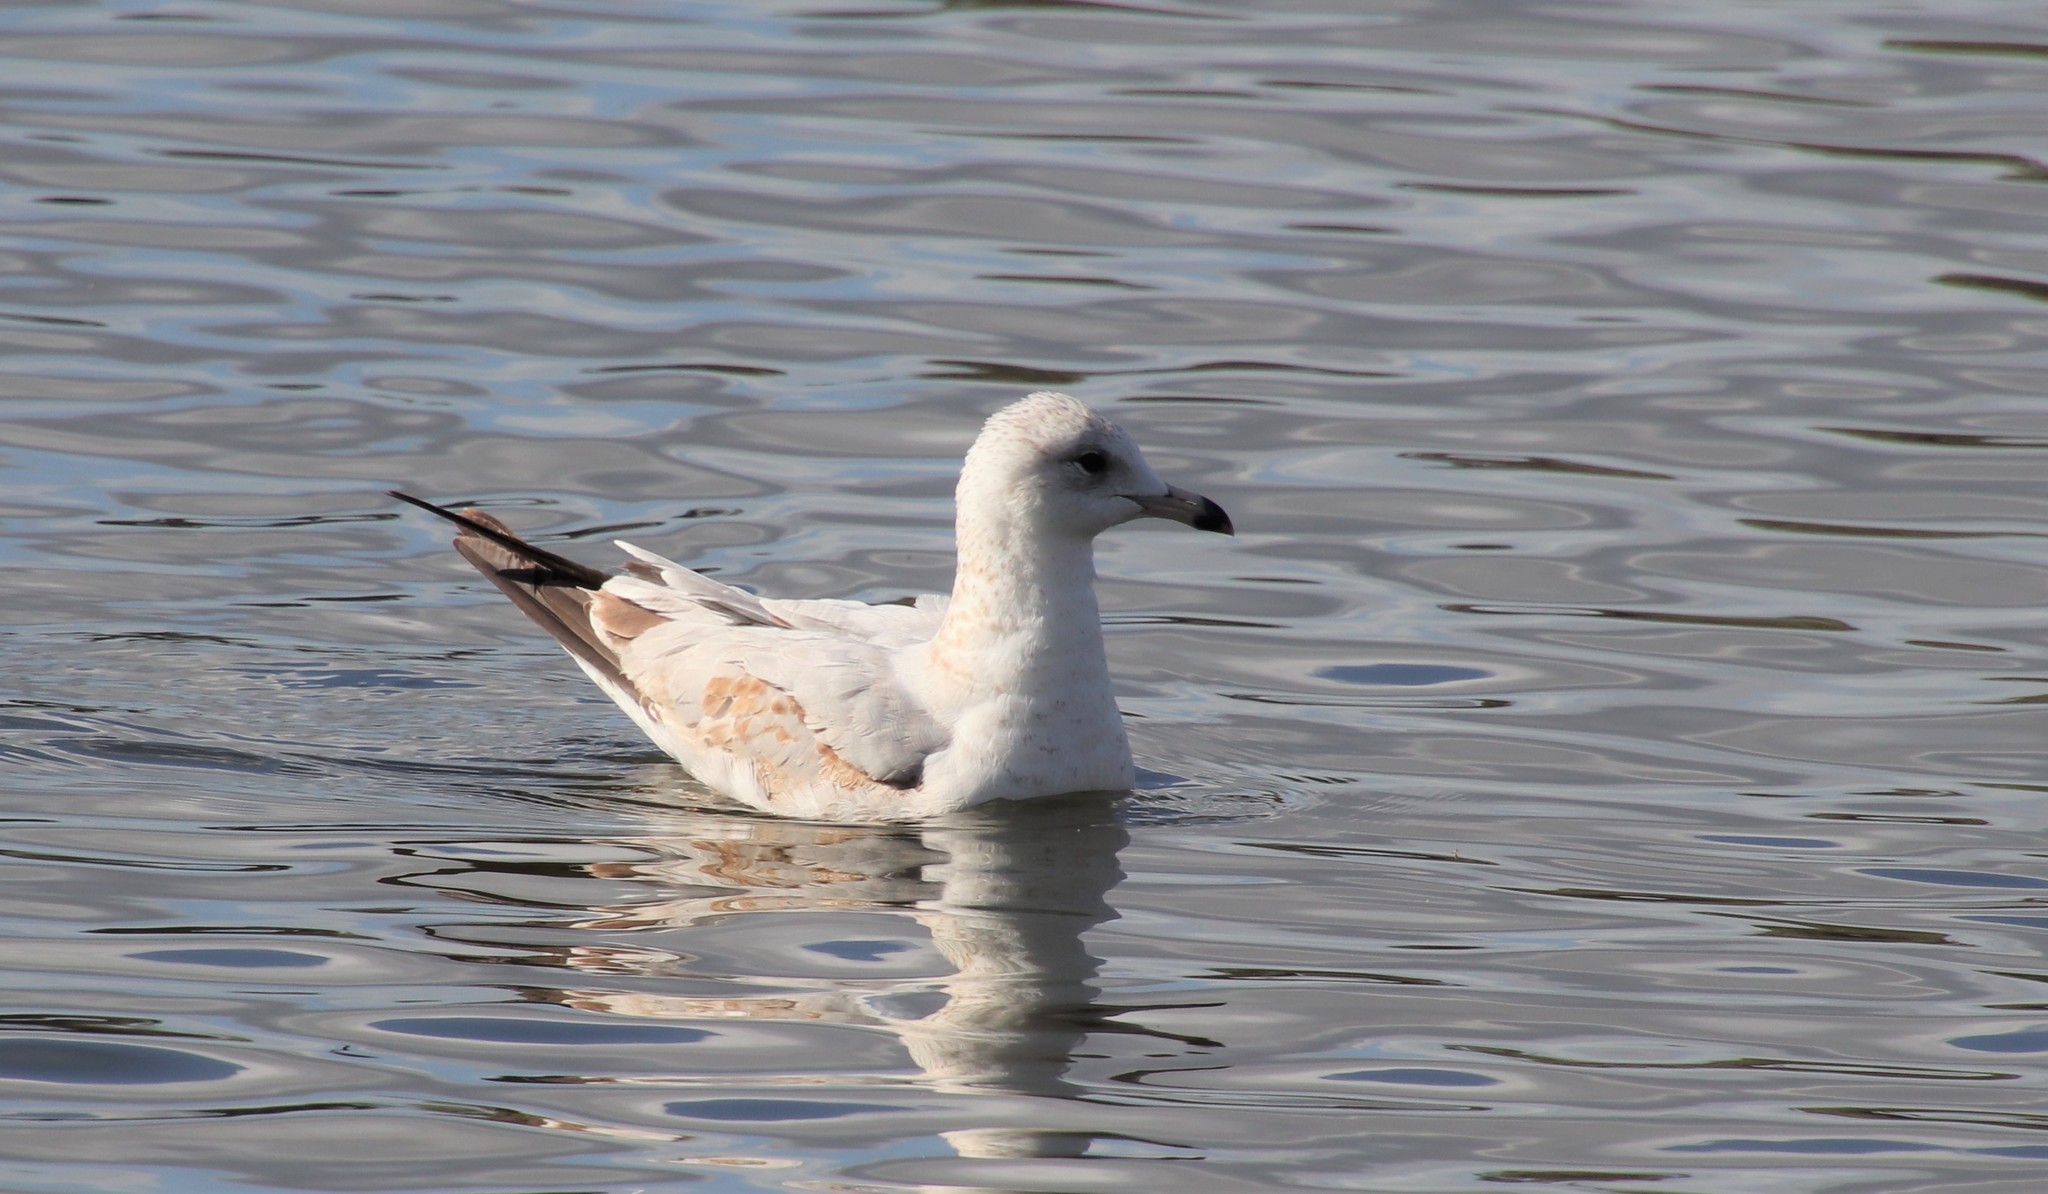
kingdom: Animalia
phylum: Chordata
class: Aves
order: Charadriiformes
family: Laridae
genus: Larus
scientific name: Larus delawarensis
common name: Ring-billed gull
